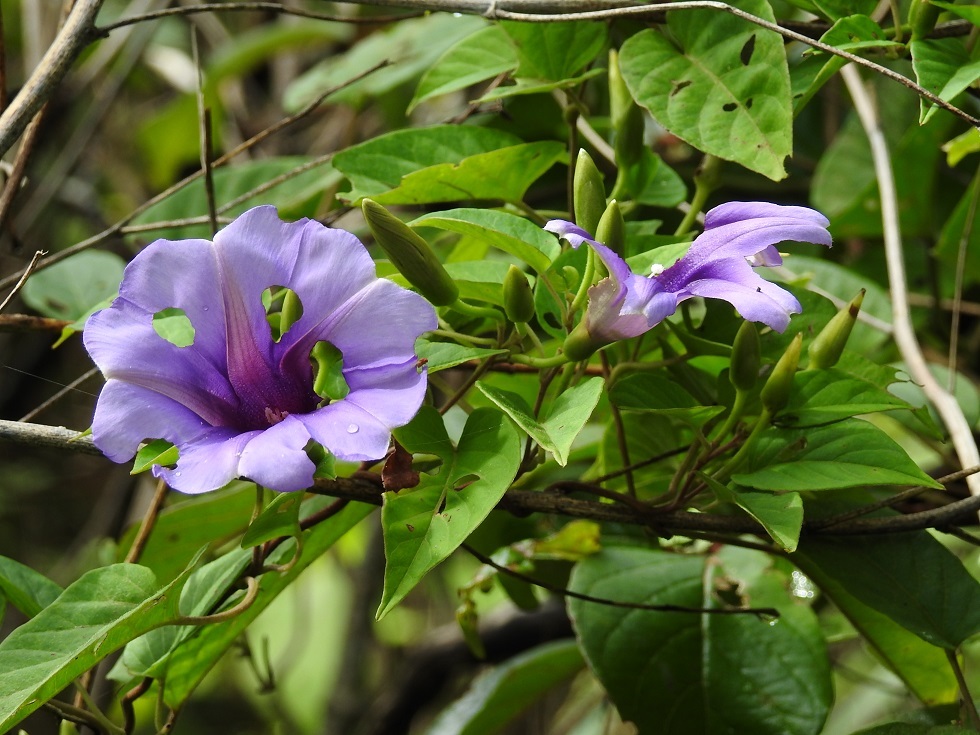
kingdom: Plantae
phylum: Tracheophyta
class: Magnoliopsida
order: Solanales
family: Convolvulaceae
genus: Ipomoea
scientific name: Ipomoea lindenii
